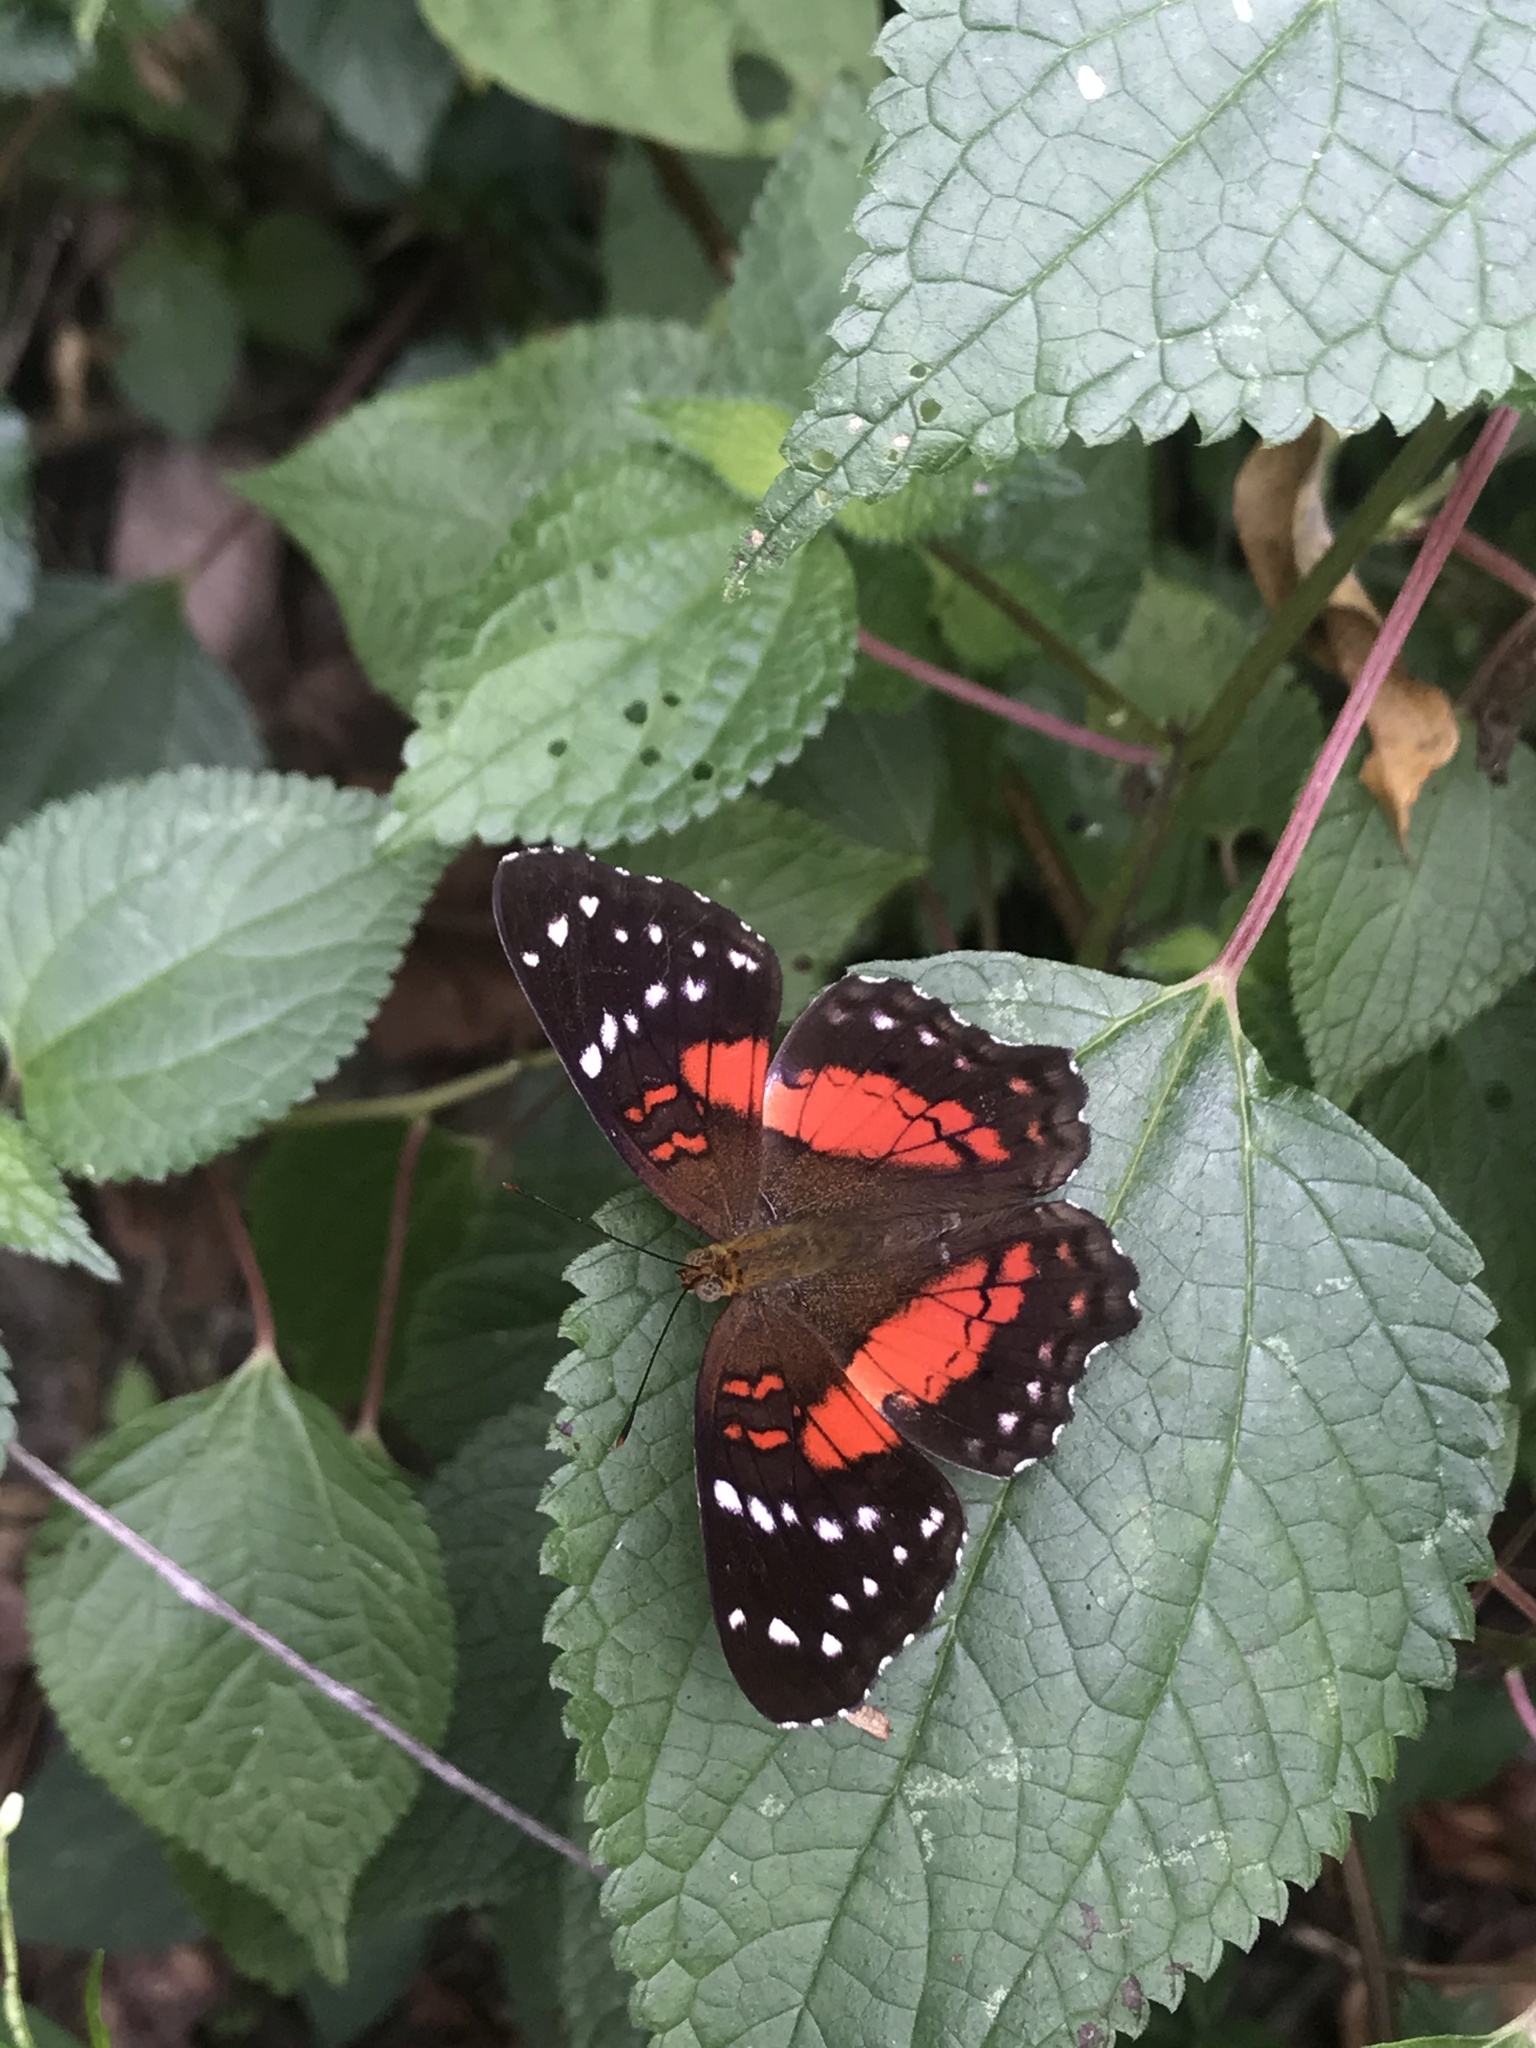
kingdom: Animalia
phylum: Arthropoda
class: Insecta
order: Lepidoptera
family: Nymphalidae
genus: Anartia
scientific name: Anartia amathea
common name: Red peacock
